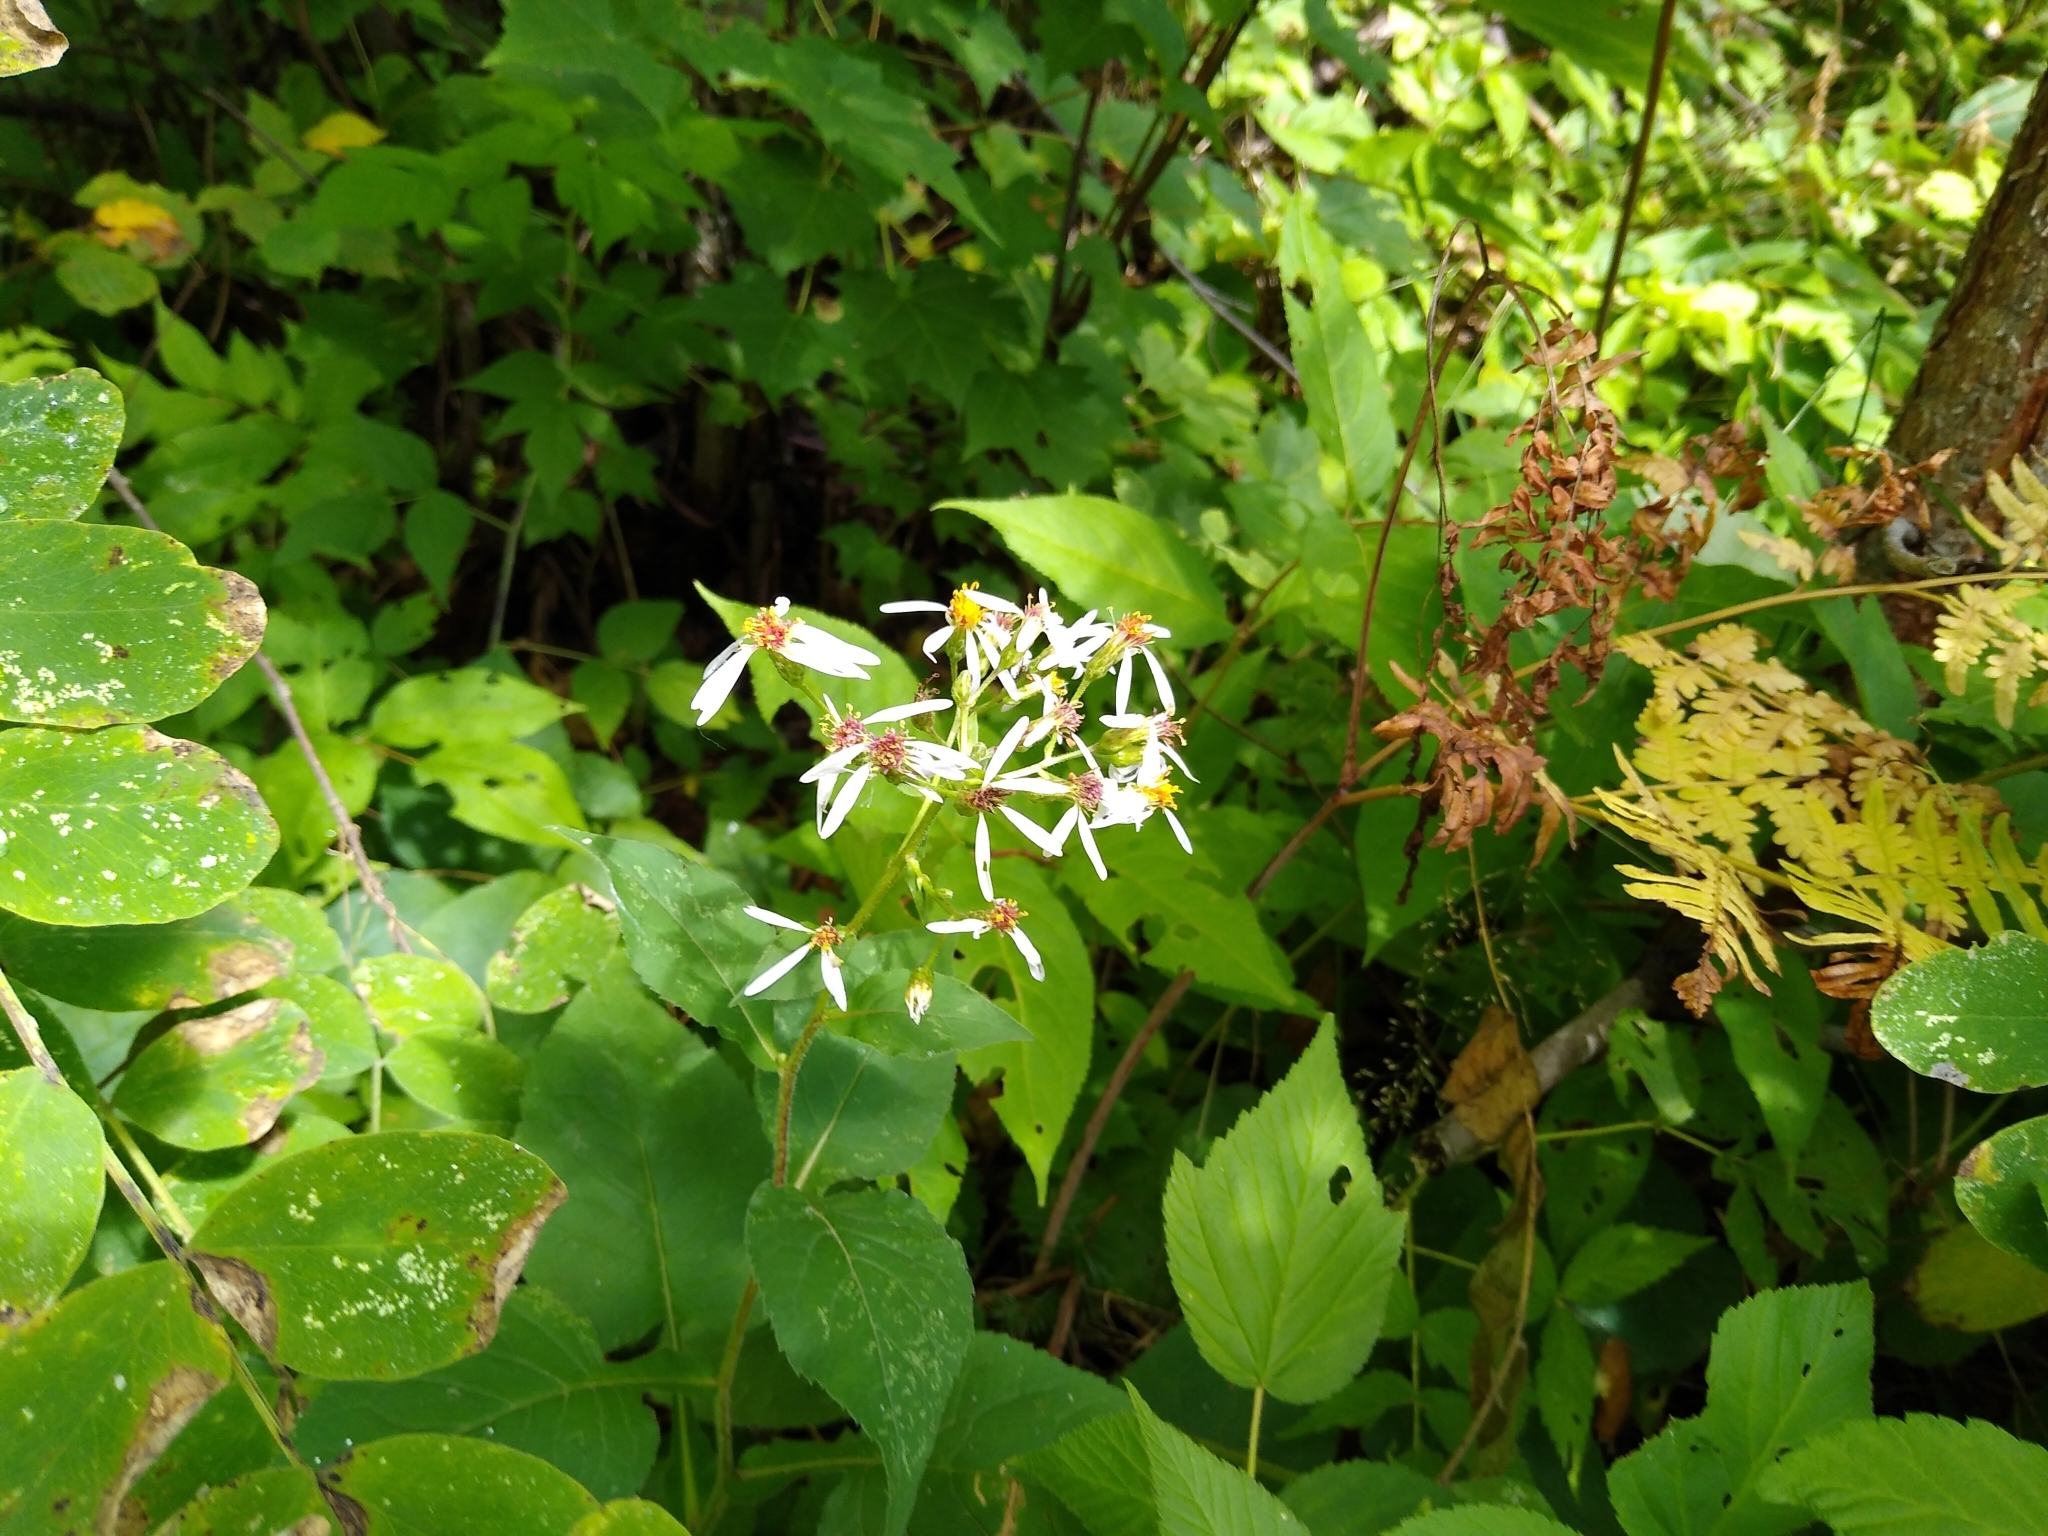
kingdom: Plantae
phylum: Tracheophyta
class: Magnoliopsida
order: Asterales
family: Asteraceae
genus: Eurybia
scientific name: Eurybia macrophylla
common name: Big-leaved aster
